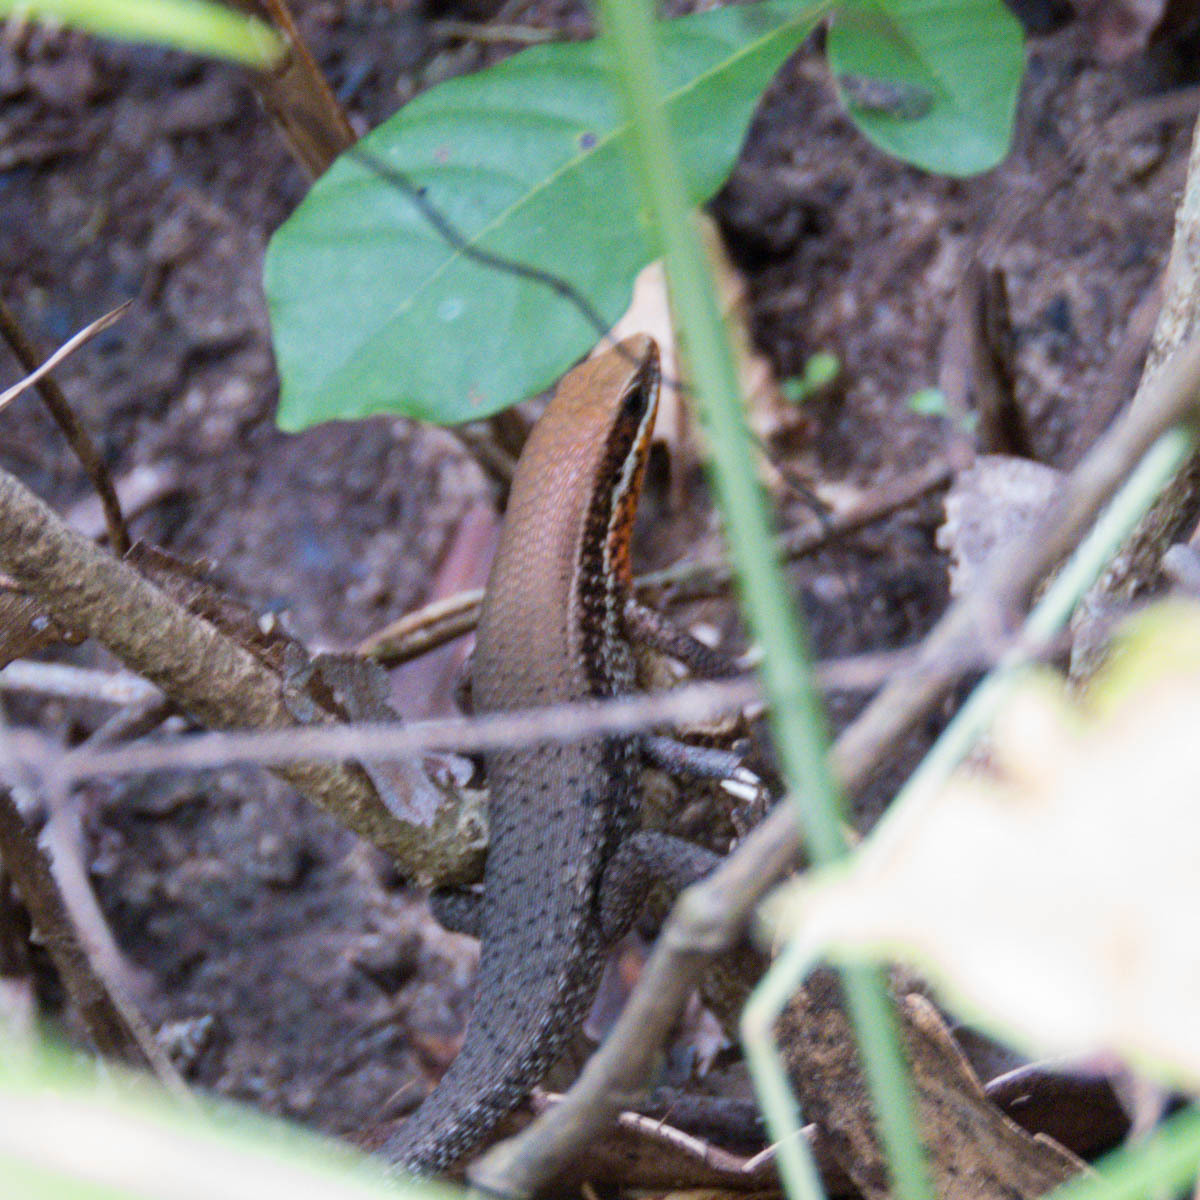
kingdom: Animalia
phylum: Chordata
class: Squamata
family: Scincidae
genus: Eutropis
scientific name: Eutropis macularia
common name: Bronze mabuya
